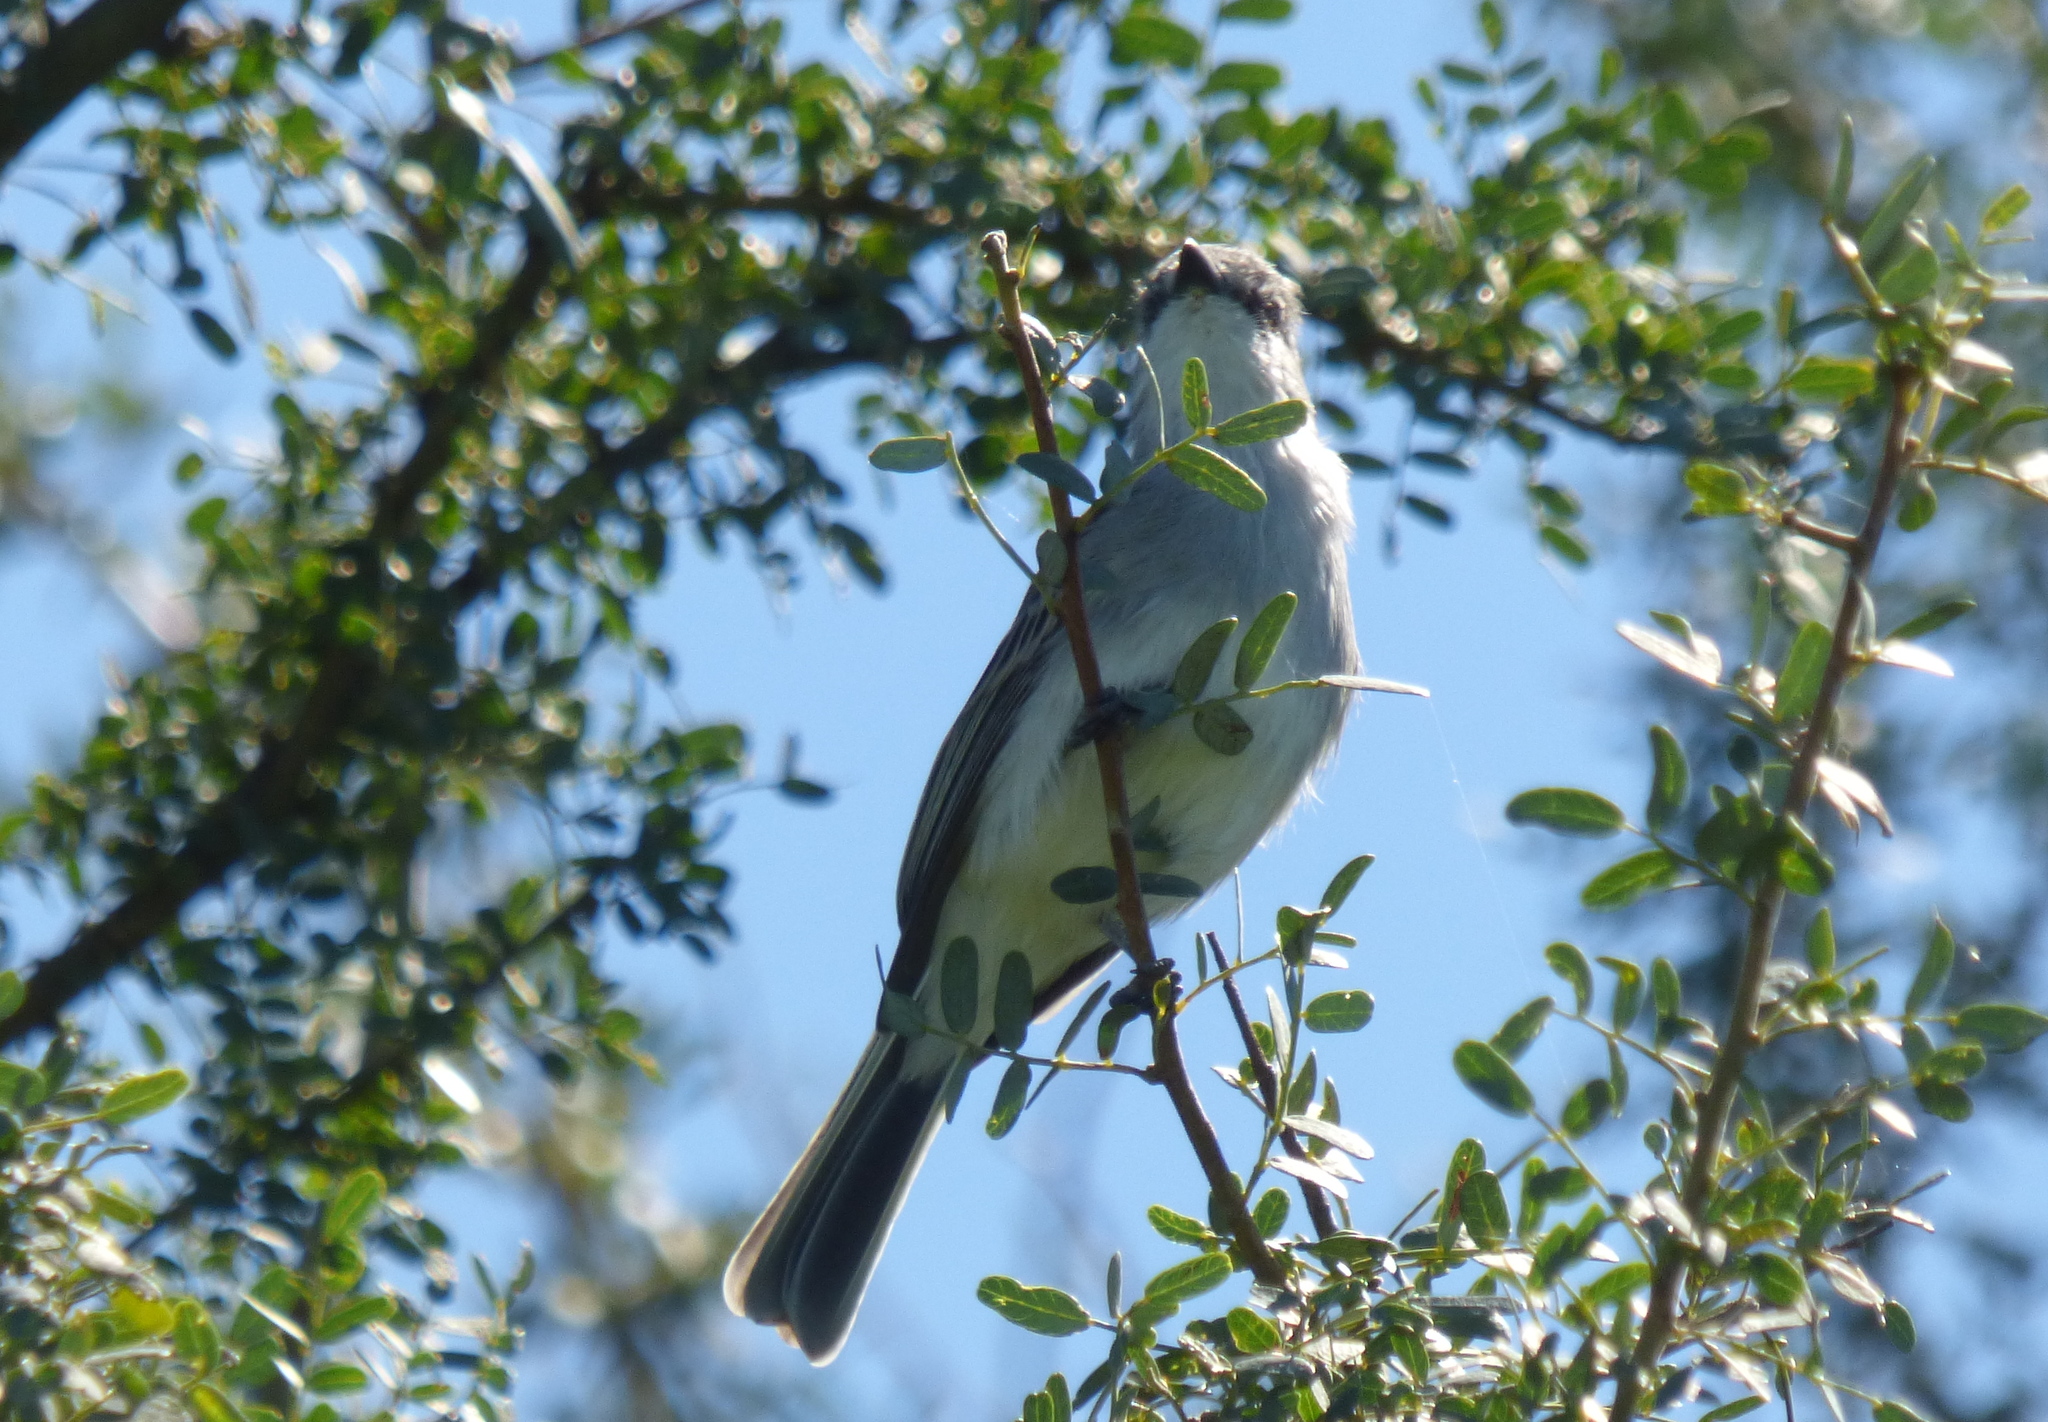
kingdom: Animalia
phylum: Chordata
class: Aves
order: Passeriformes
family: Tyrannidae
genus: Suiriri
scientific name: Suiriri suiriri
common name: Suiriri flycatcher
